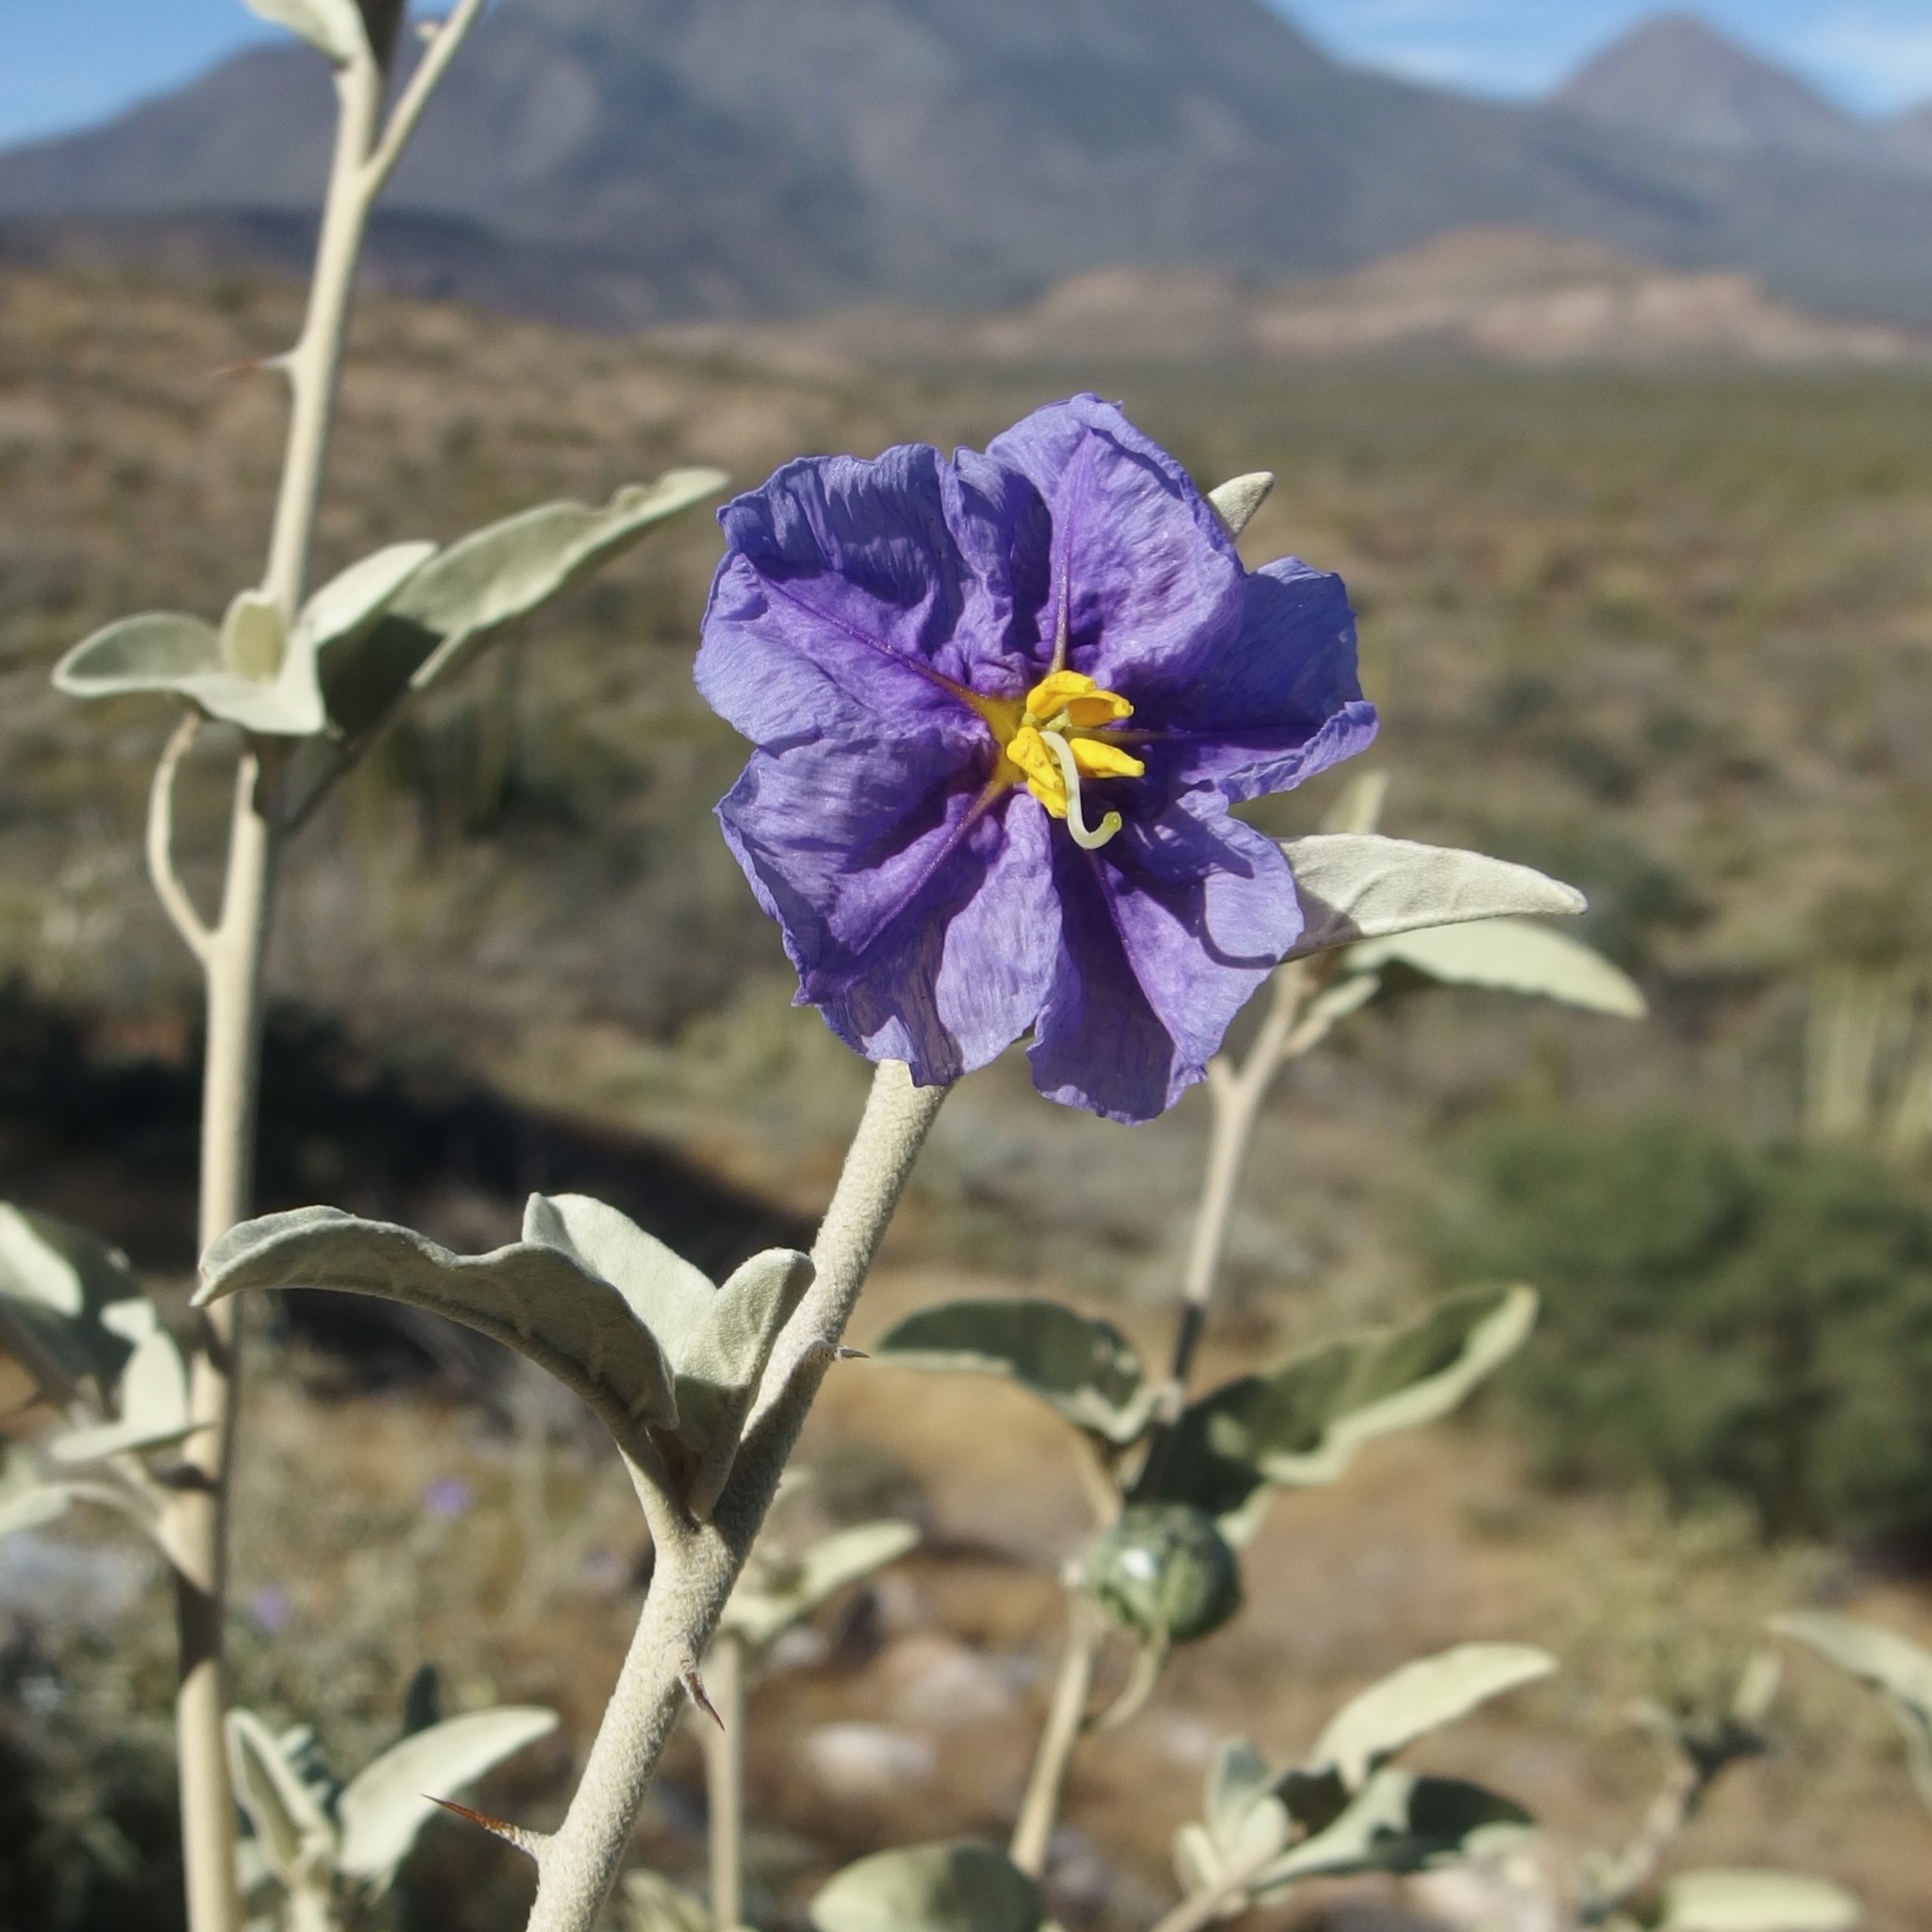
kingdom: Plantae
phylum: Tracheophyta
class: Magnoliopsida
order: Solanales
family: Solanaceae
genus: Solanum
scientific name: Solanum hindsianum
